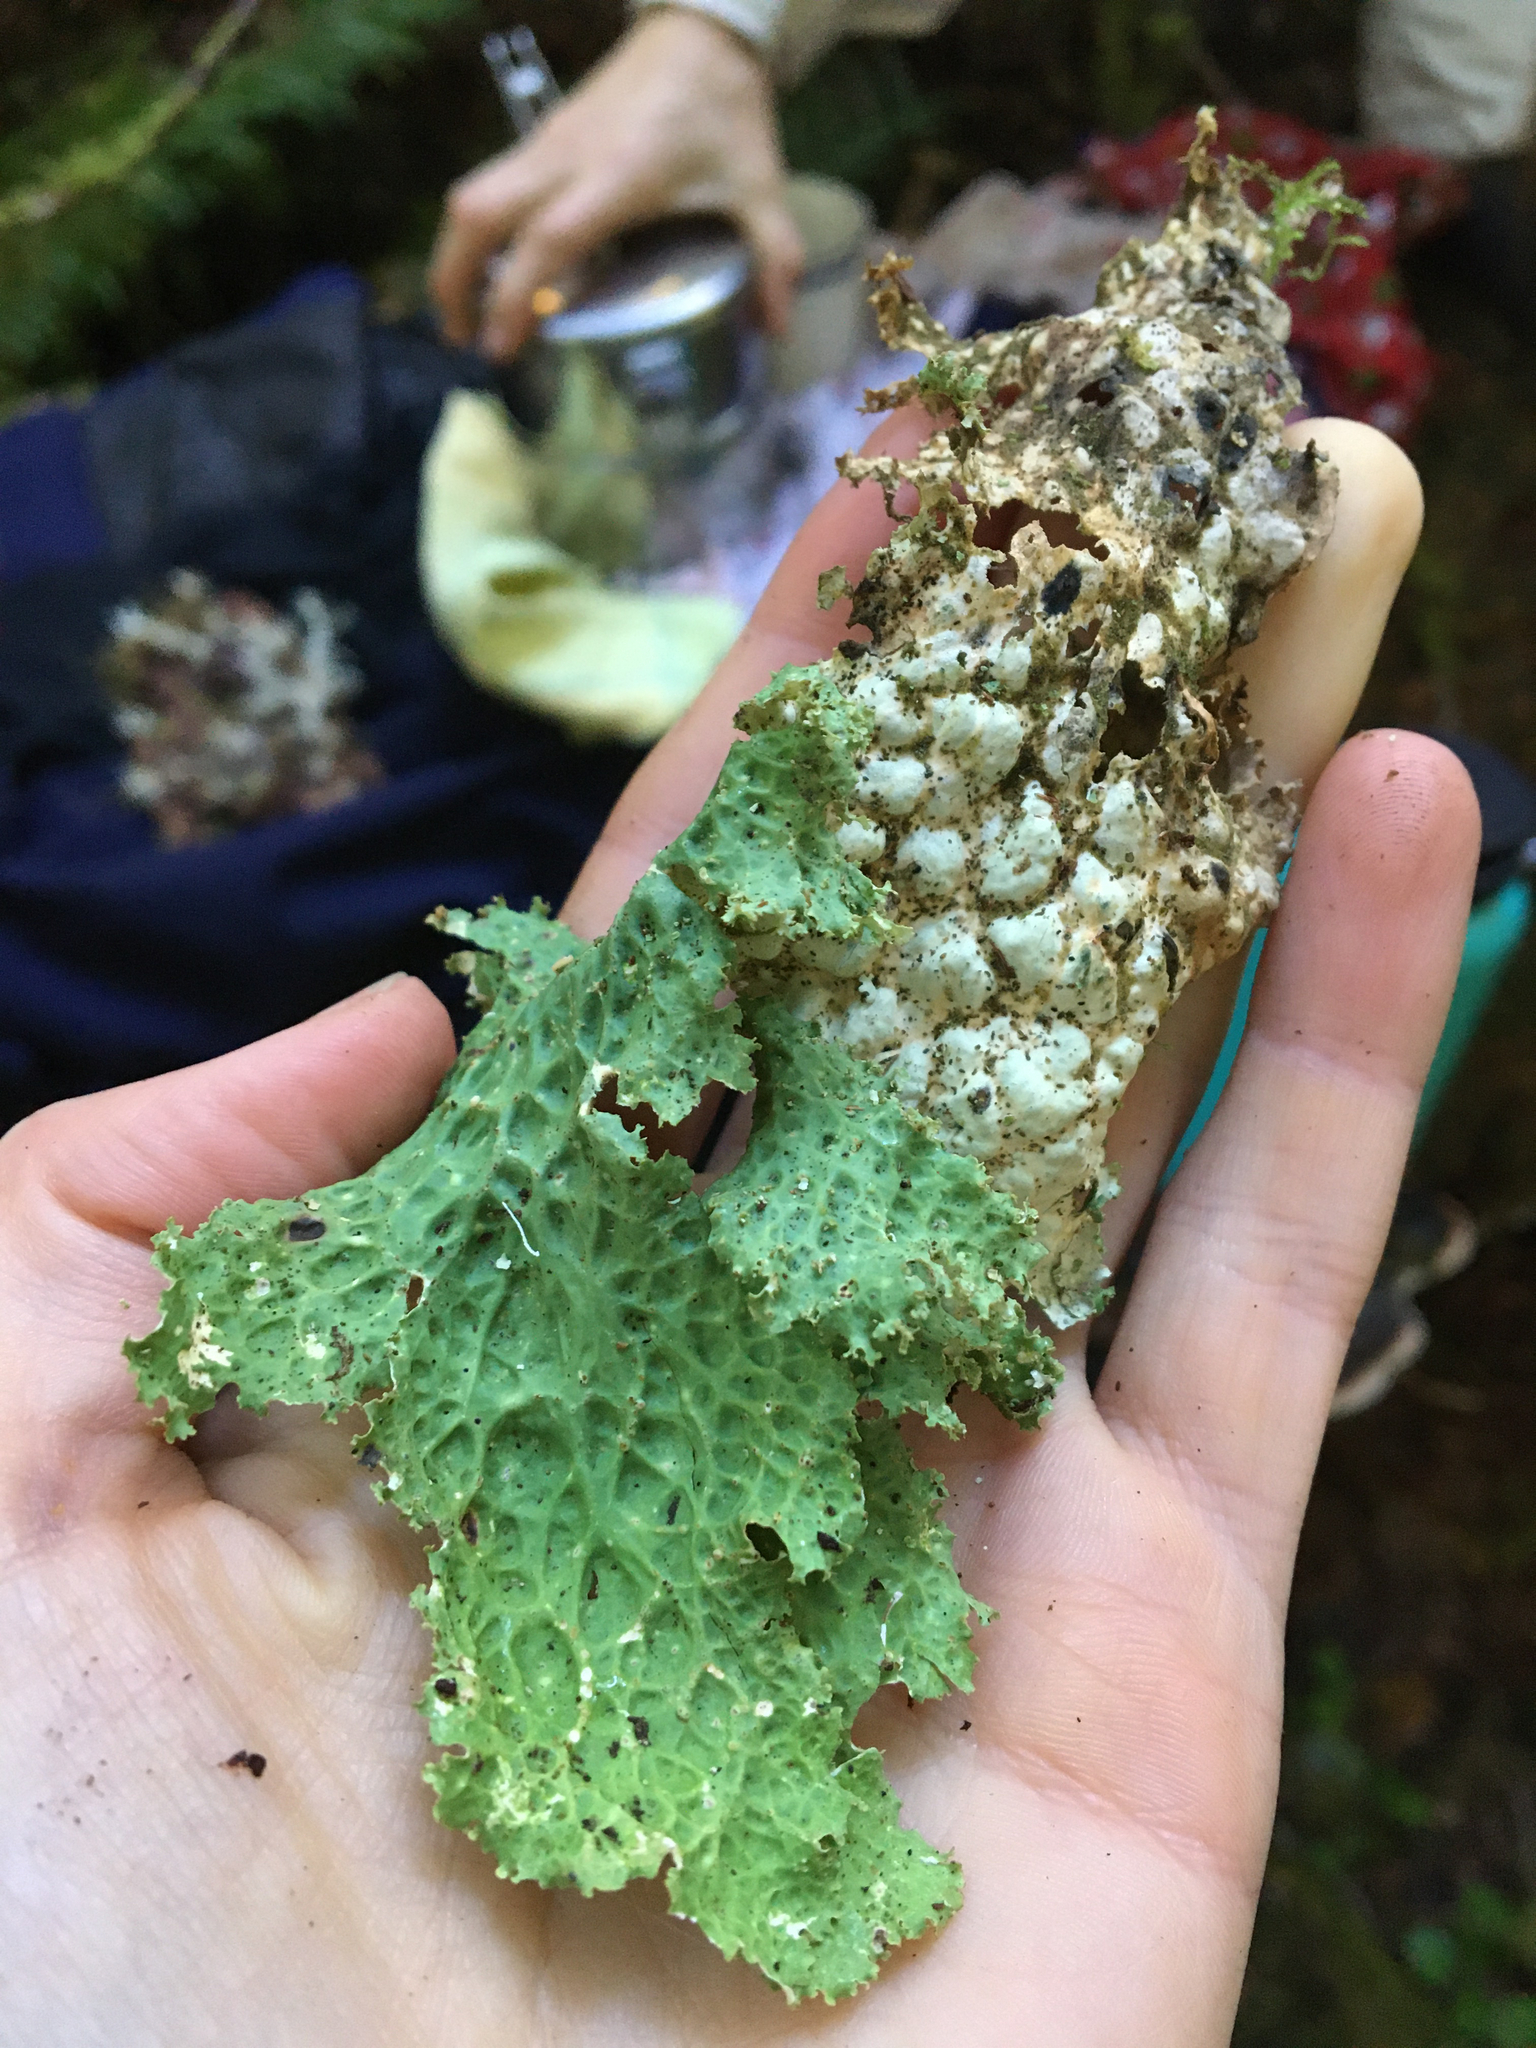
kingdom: Fungi
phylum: Ascomycota
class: Lecanoromycetes
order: Peltigerales
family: Lobariaceae
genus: Lobaria
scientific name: Lobaria oregana
